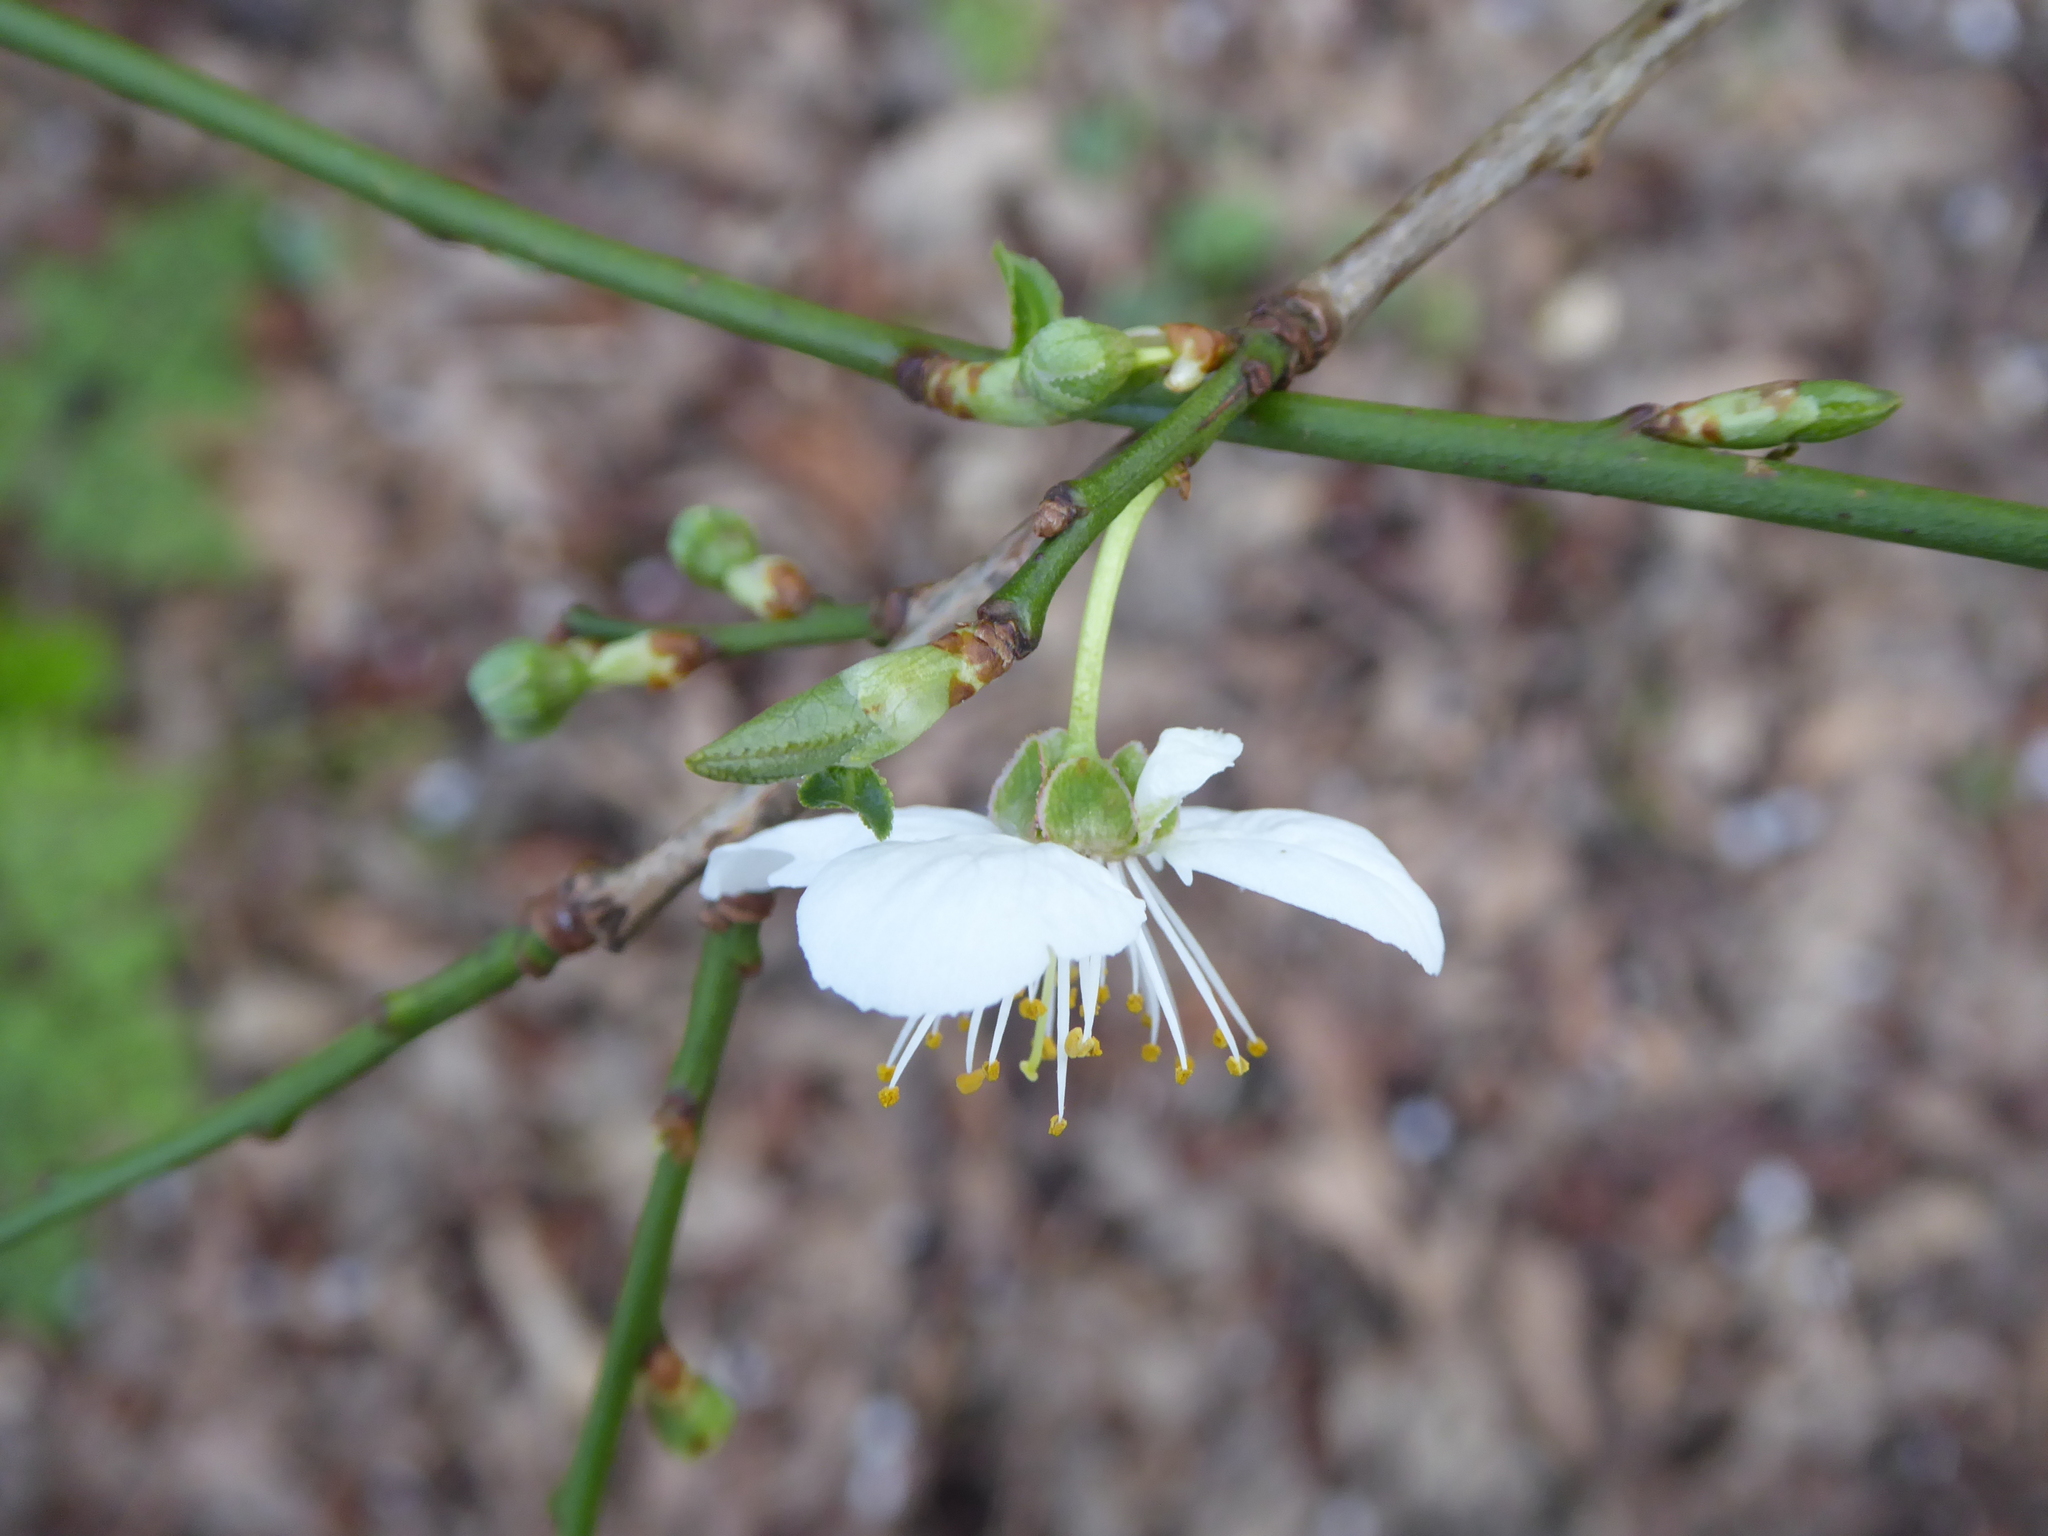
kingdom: Plantae
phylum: Tracheophyta
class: Magnoliopsida
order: Rosales
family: Rosaceae
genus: Prunus
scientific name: Prunus cerasifera
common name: Cherry plum
